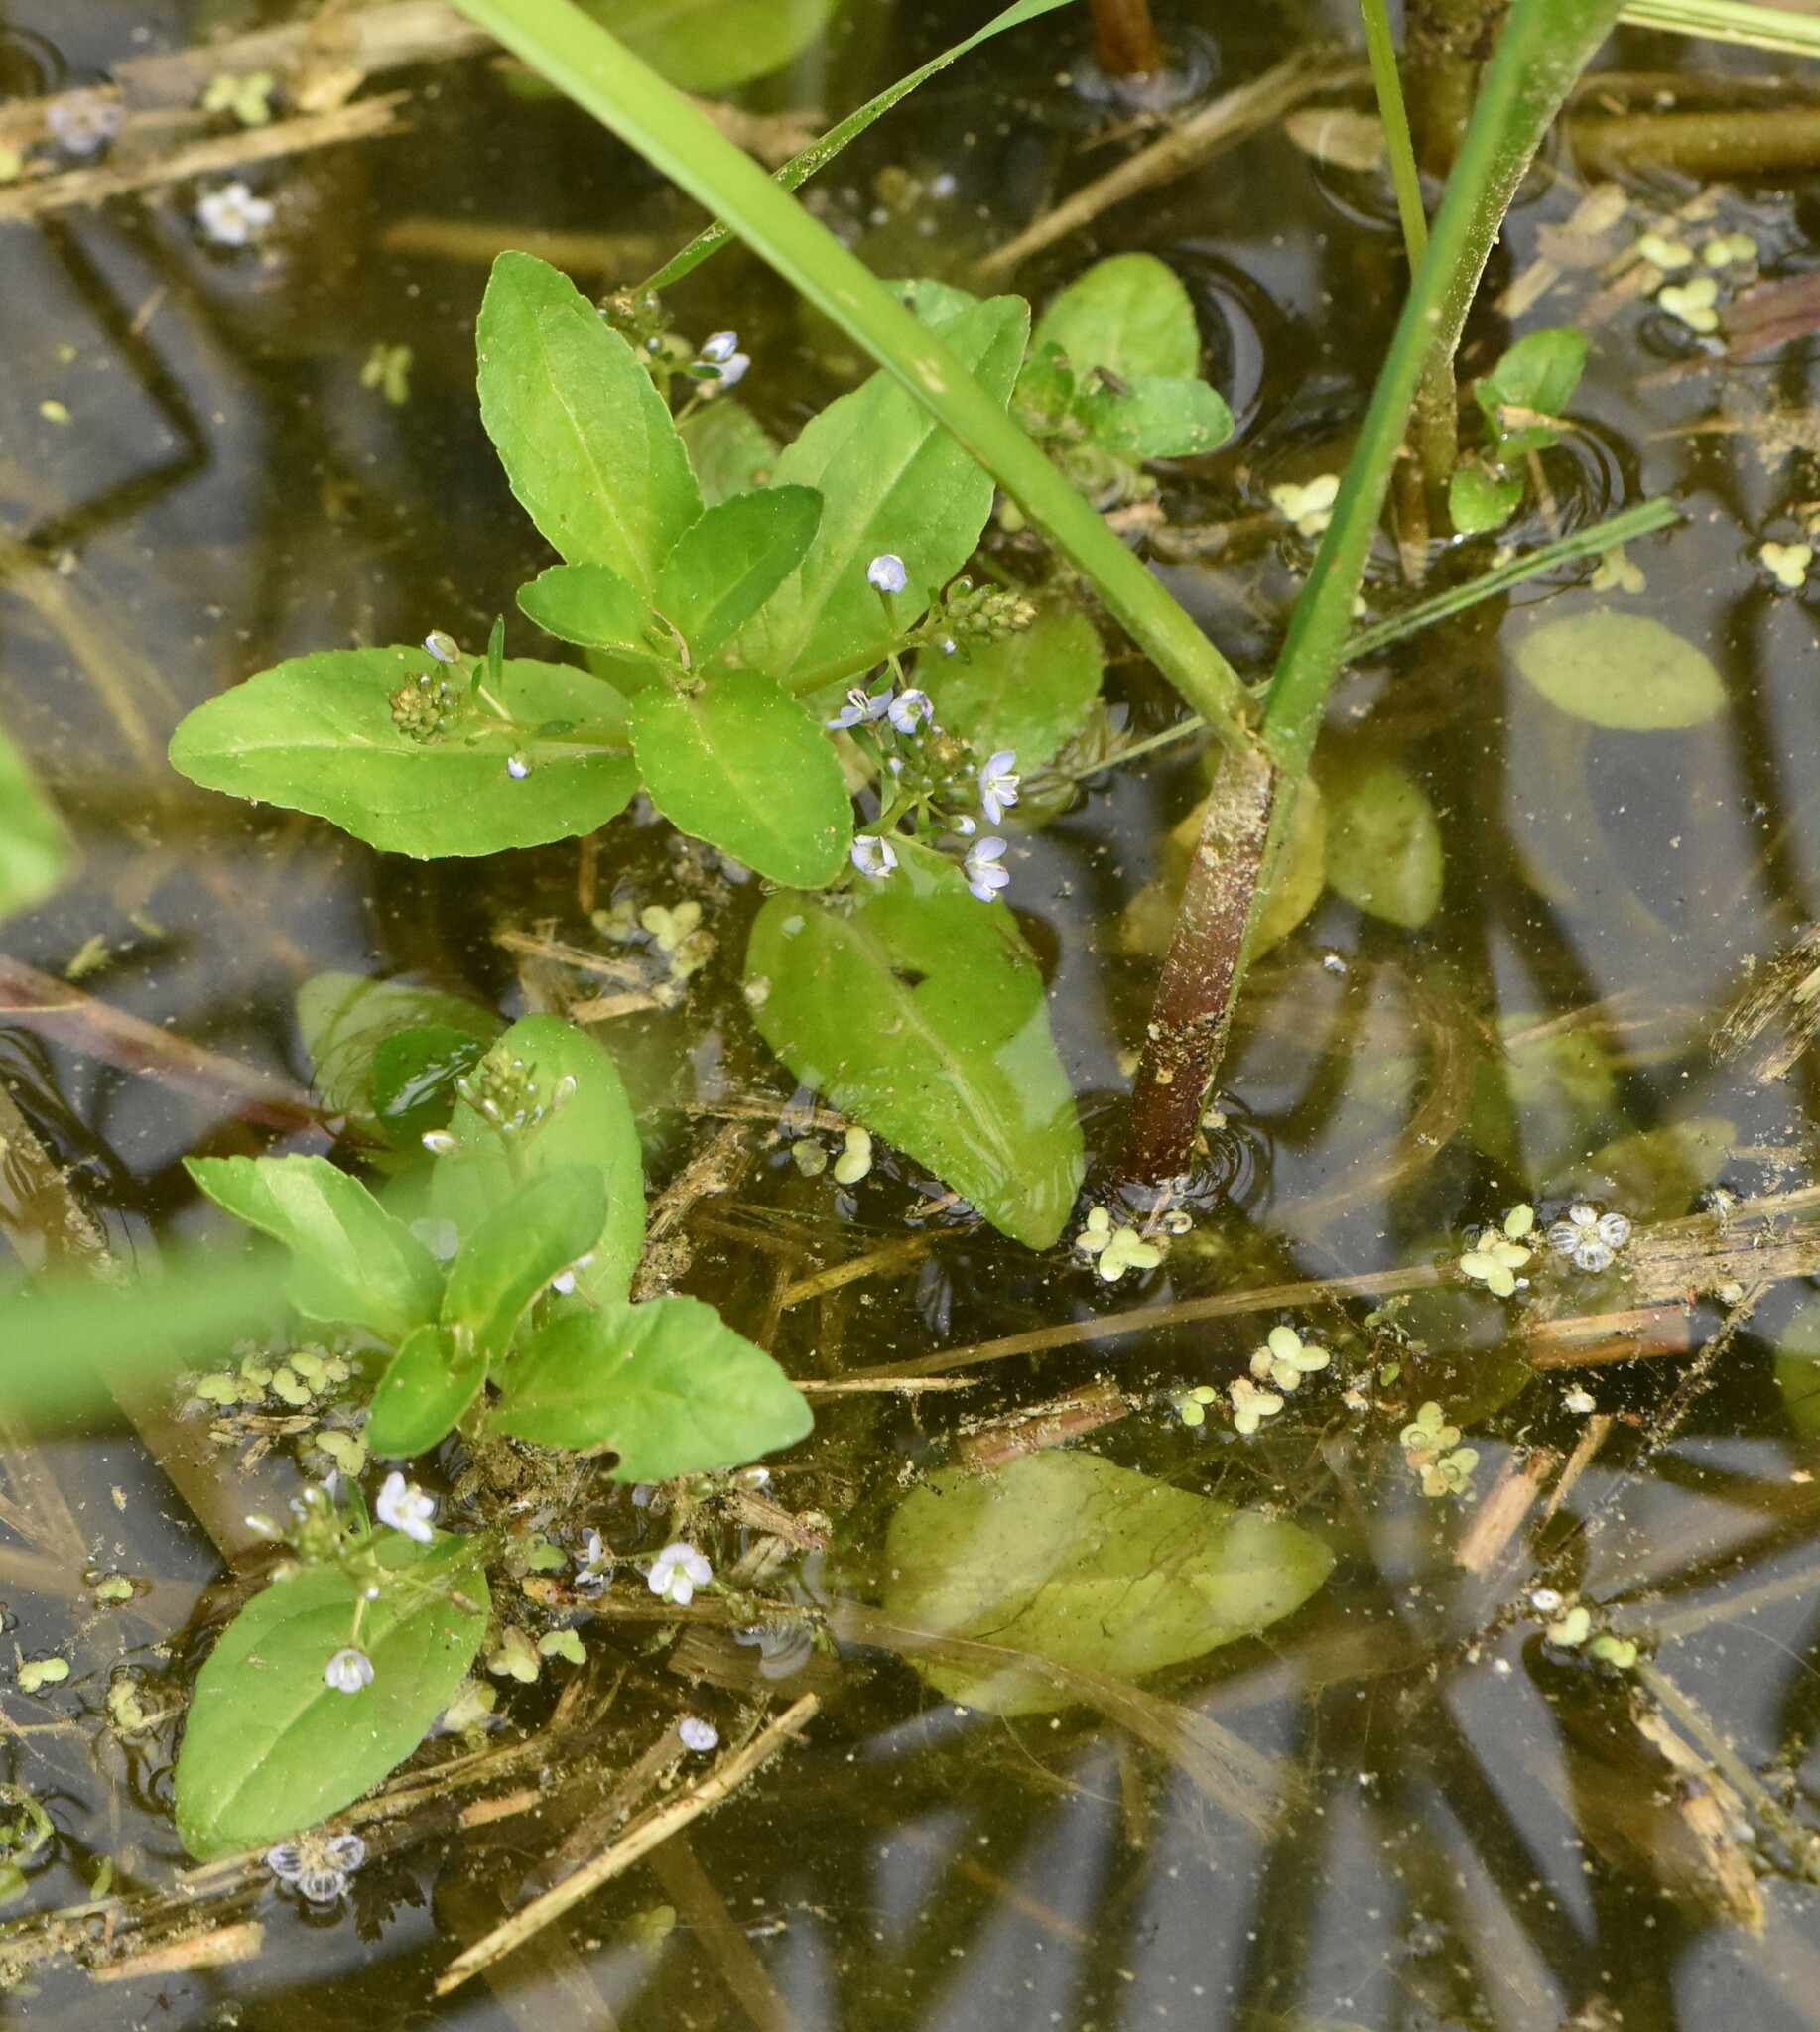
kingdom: Plantae
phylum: Tracheophyta
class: Magnoliopsida
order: Lamiales
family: Plantaginaceae
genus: Veronica
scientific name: Veronica beccabunga
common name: Brooklime
